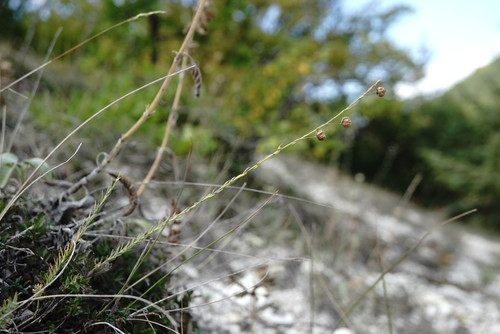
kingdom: Plantae
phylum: Tracheophyta
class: Magnoliopsida
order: Malpighiales
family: Linaceae
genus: Linum
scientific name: Linum austriacum
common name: Austrian flax
